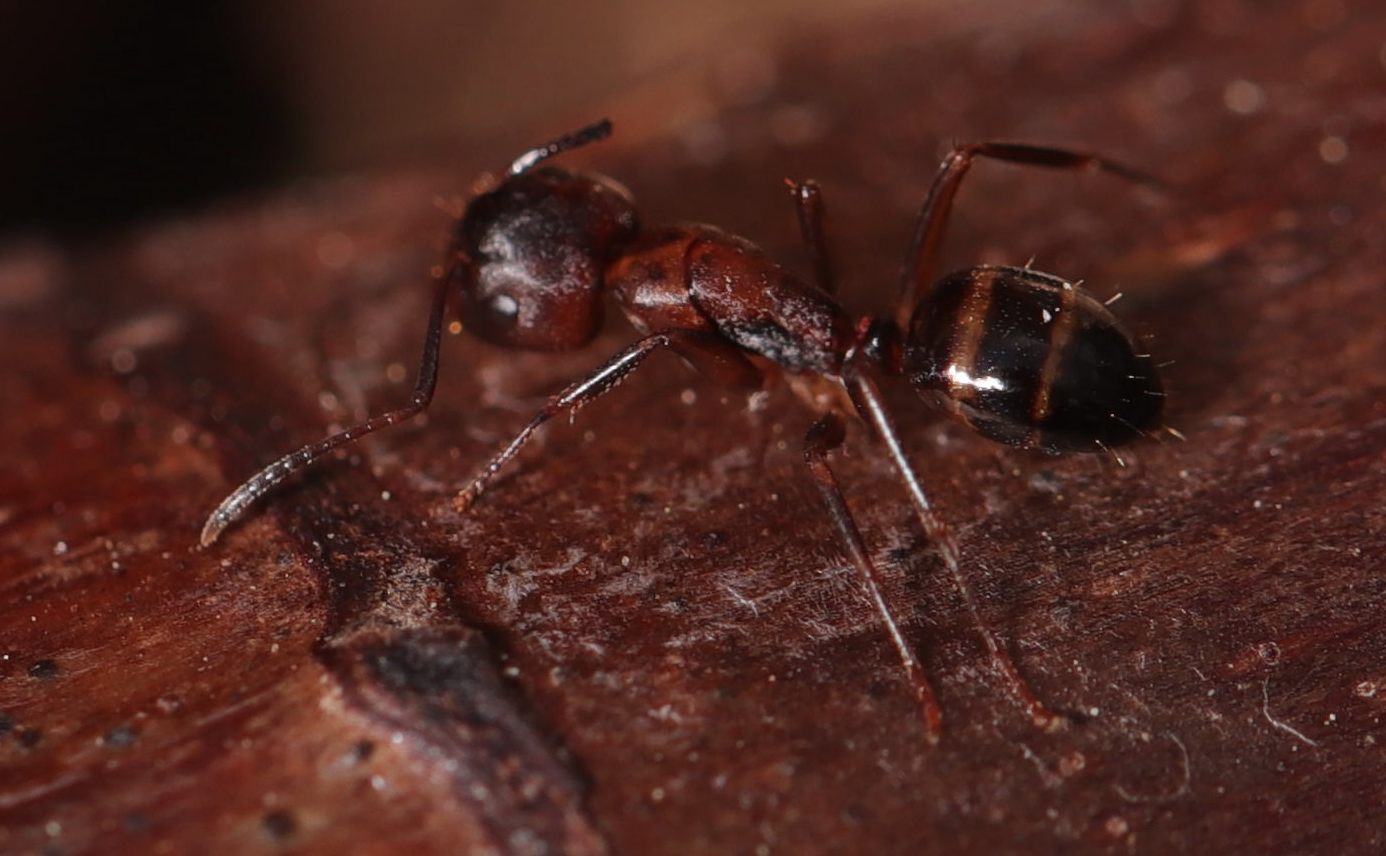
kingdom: Animalia
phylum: Arthropoda
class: Insecta
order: Hymenoptera
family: Formicidae
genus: Camponotus
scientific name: Camponotus subbarbatus
